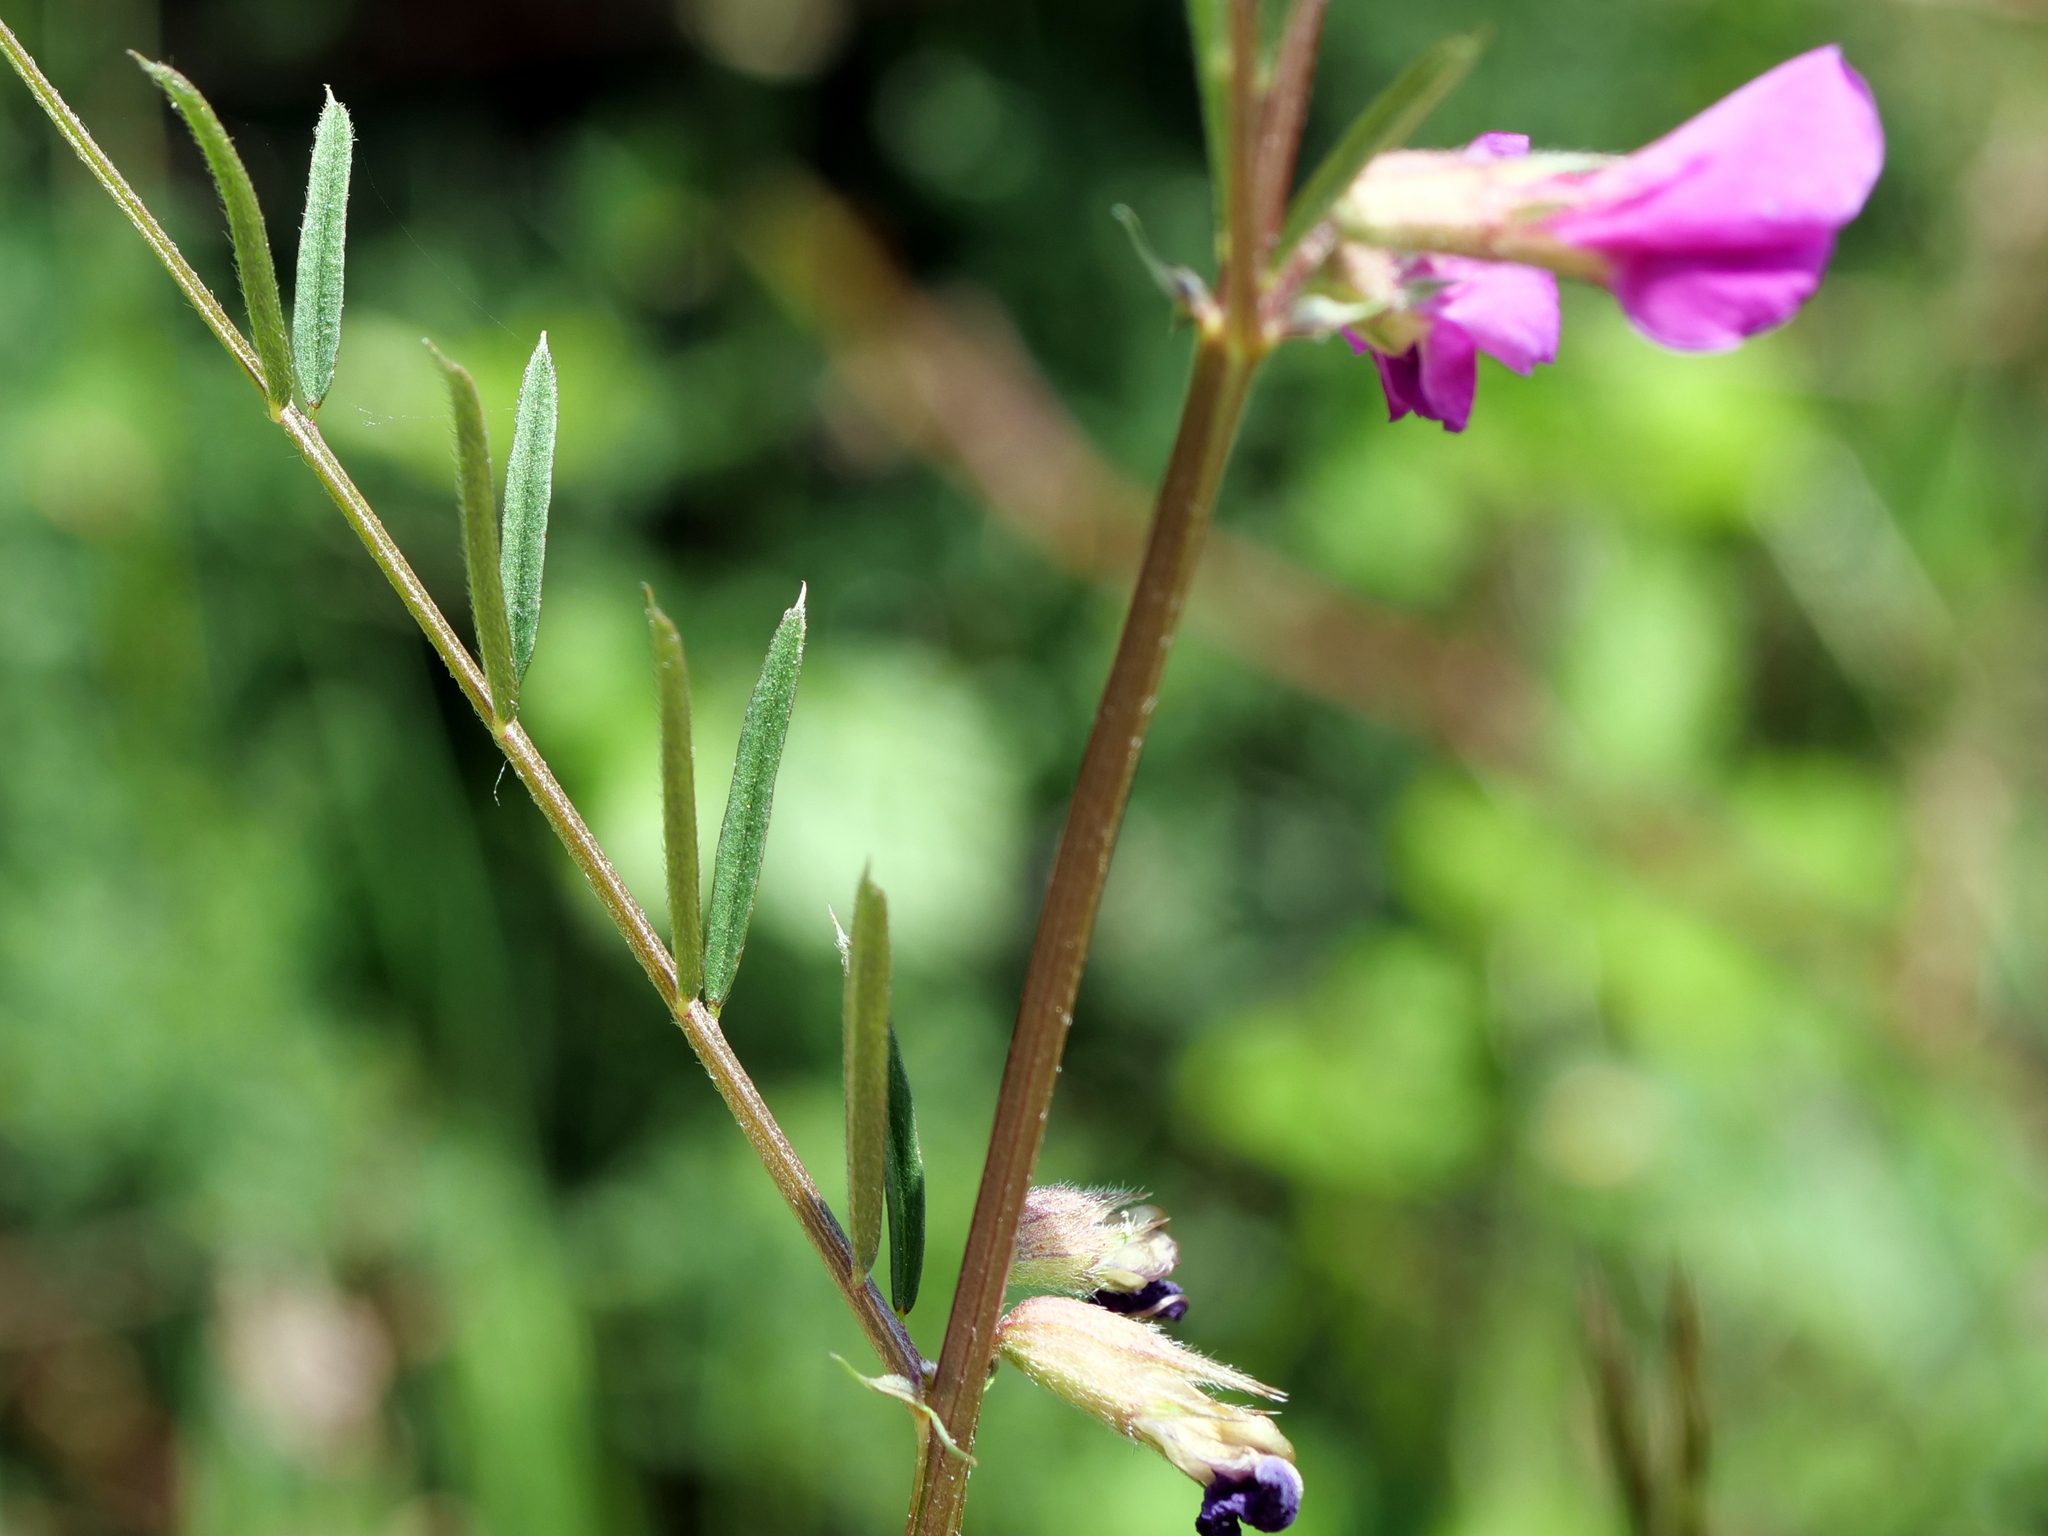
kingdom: Plantae
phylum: Tracheophyta
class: Magnoliopsida
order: Fabales
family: Fabaceae
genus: Vicia
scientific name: Vicia sativa
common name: Garden vetch
